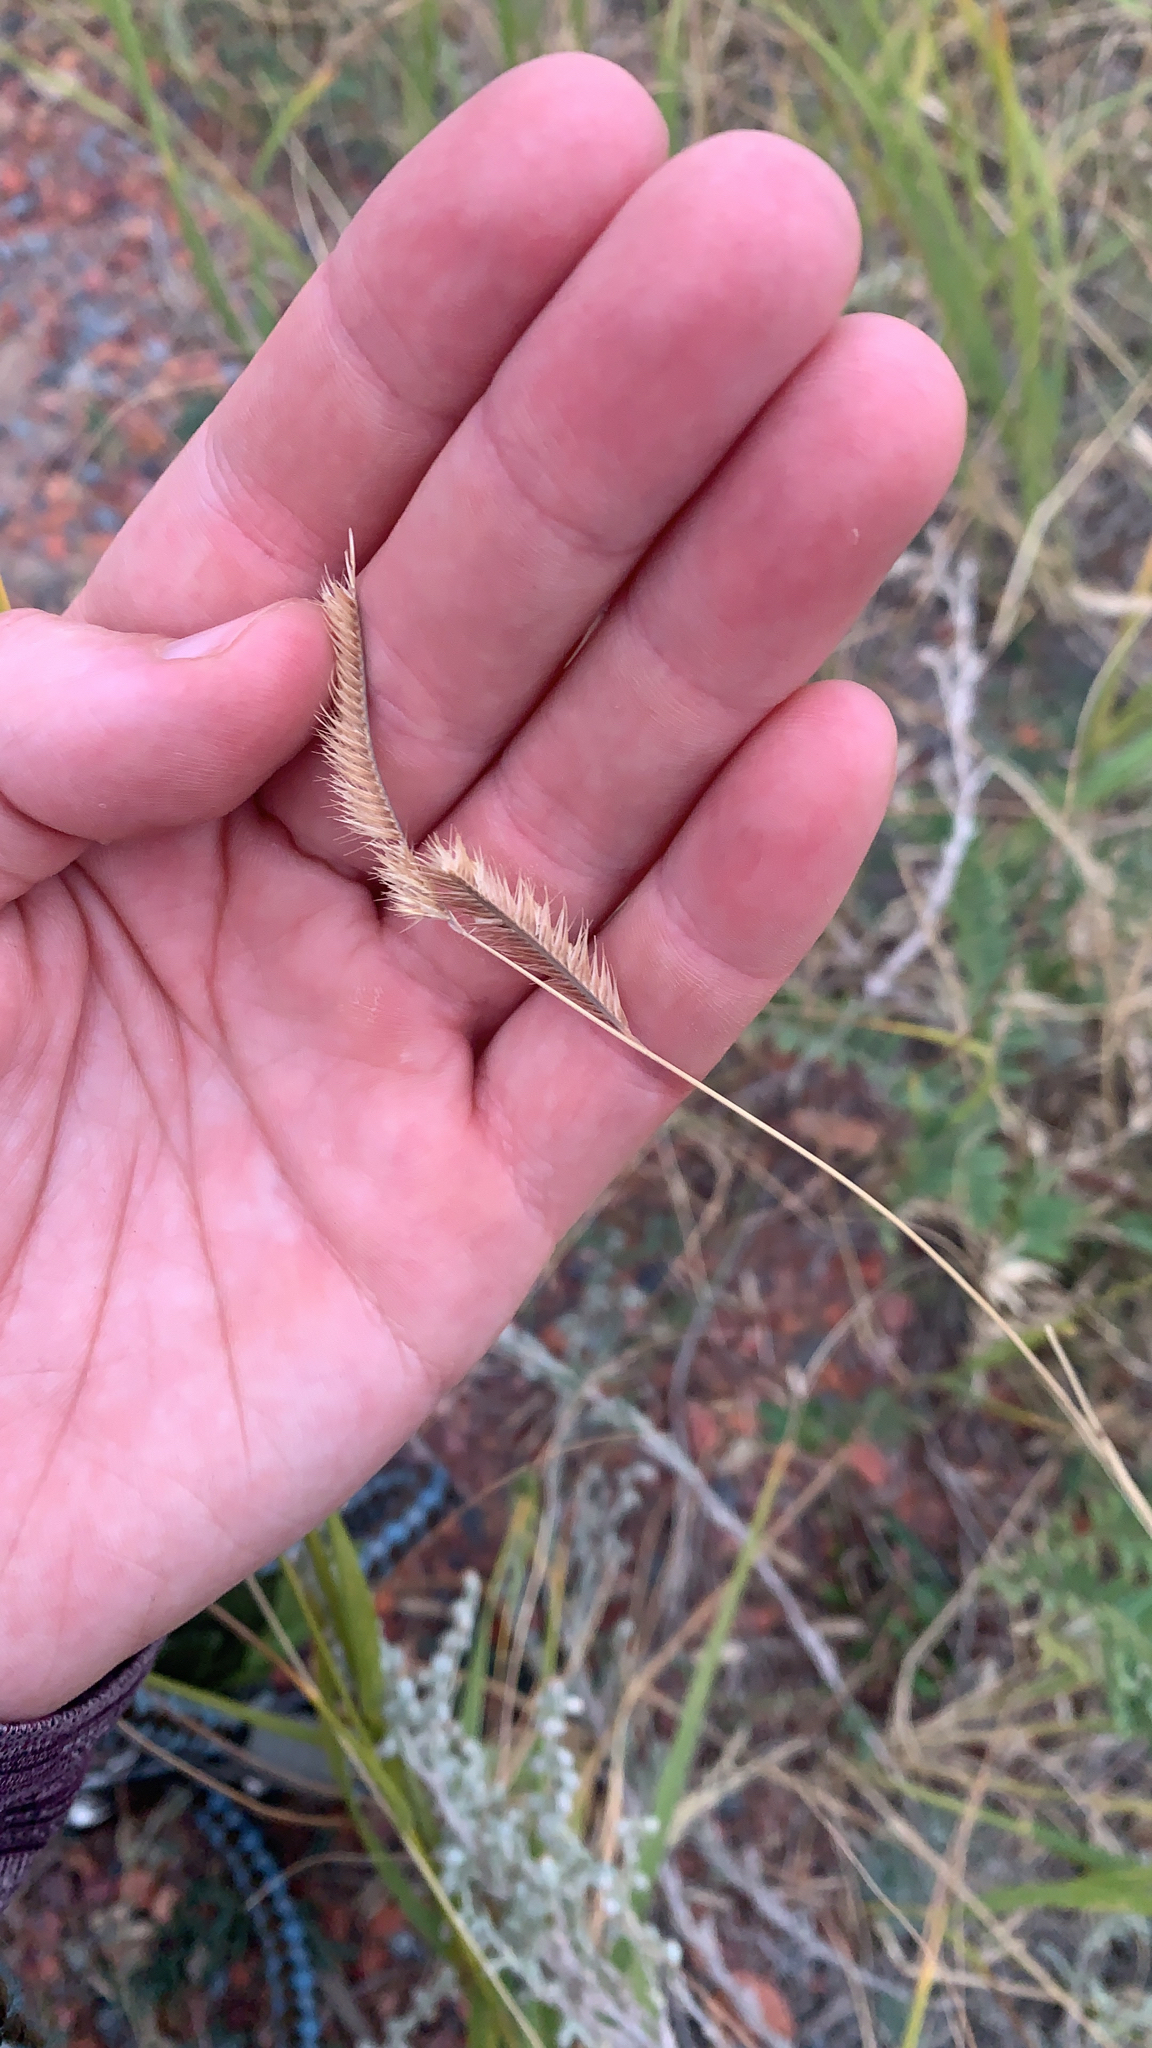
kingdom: Plantae
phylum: Tracheophyta
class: Liliopsida
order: Poales
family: Poaceae
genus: Bouteloua
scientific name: Bouteloua gracilis
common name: Blue grama
